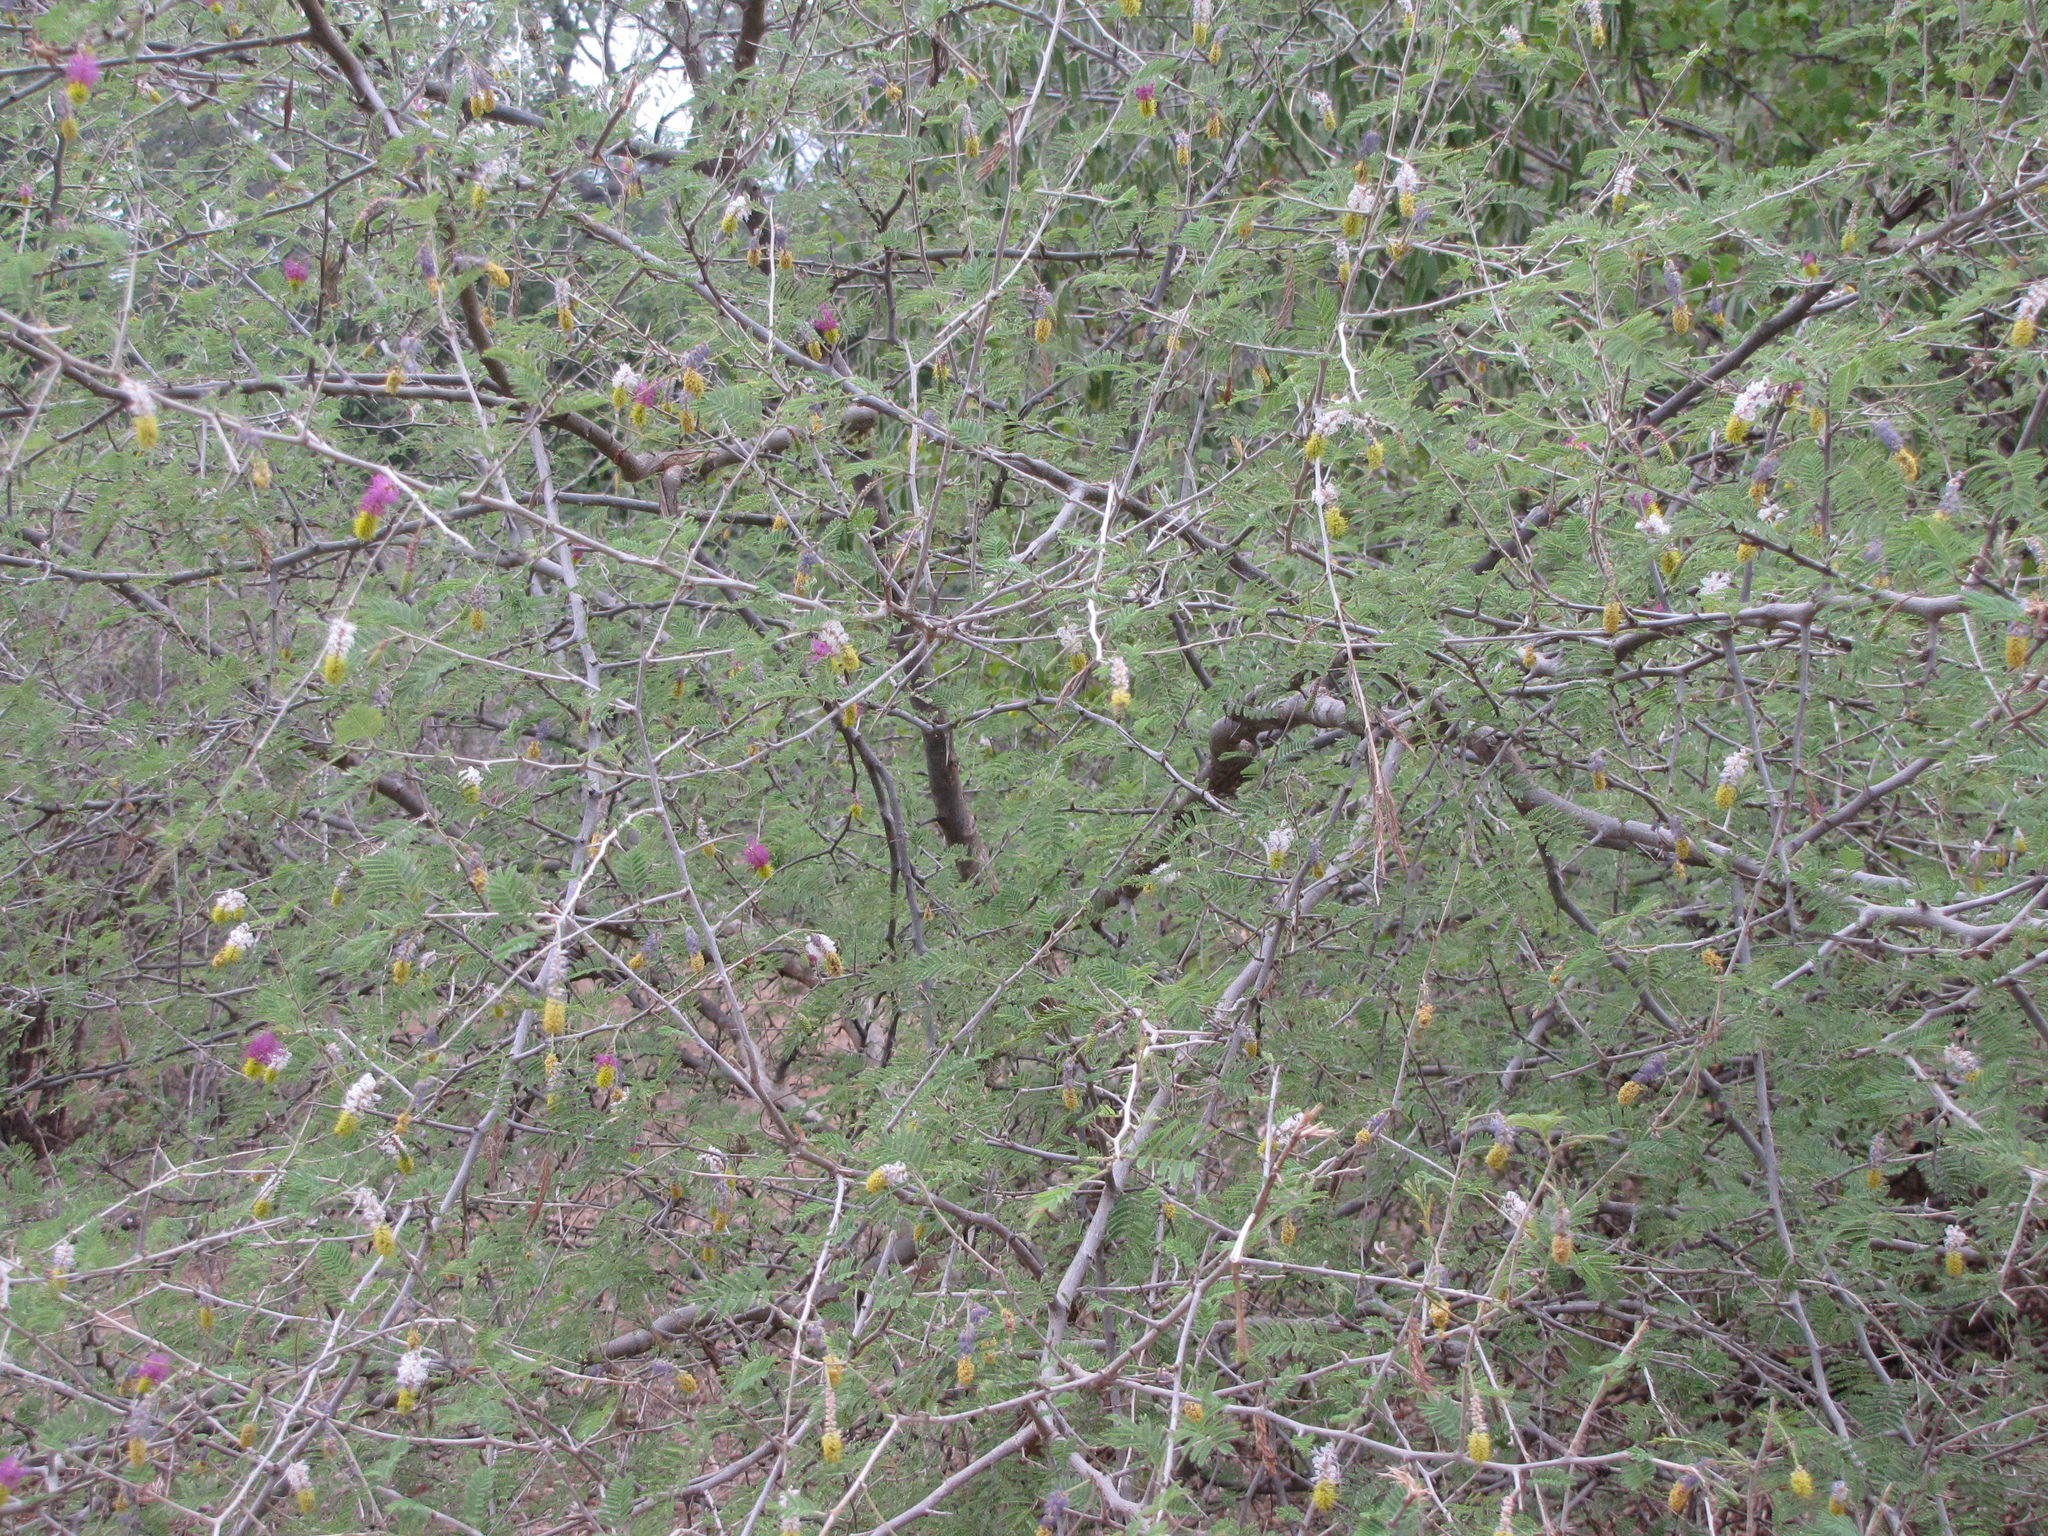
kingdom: Plantae
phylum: Tracheophyta
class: Magnoliopsida
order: Fabales
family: Fabaceae
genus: Dichrostachys
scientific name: Dichrostachys cinerea
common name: Sicklebush
